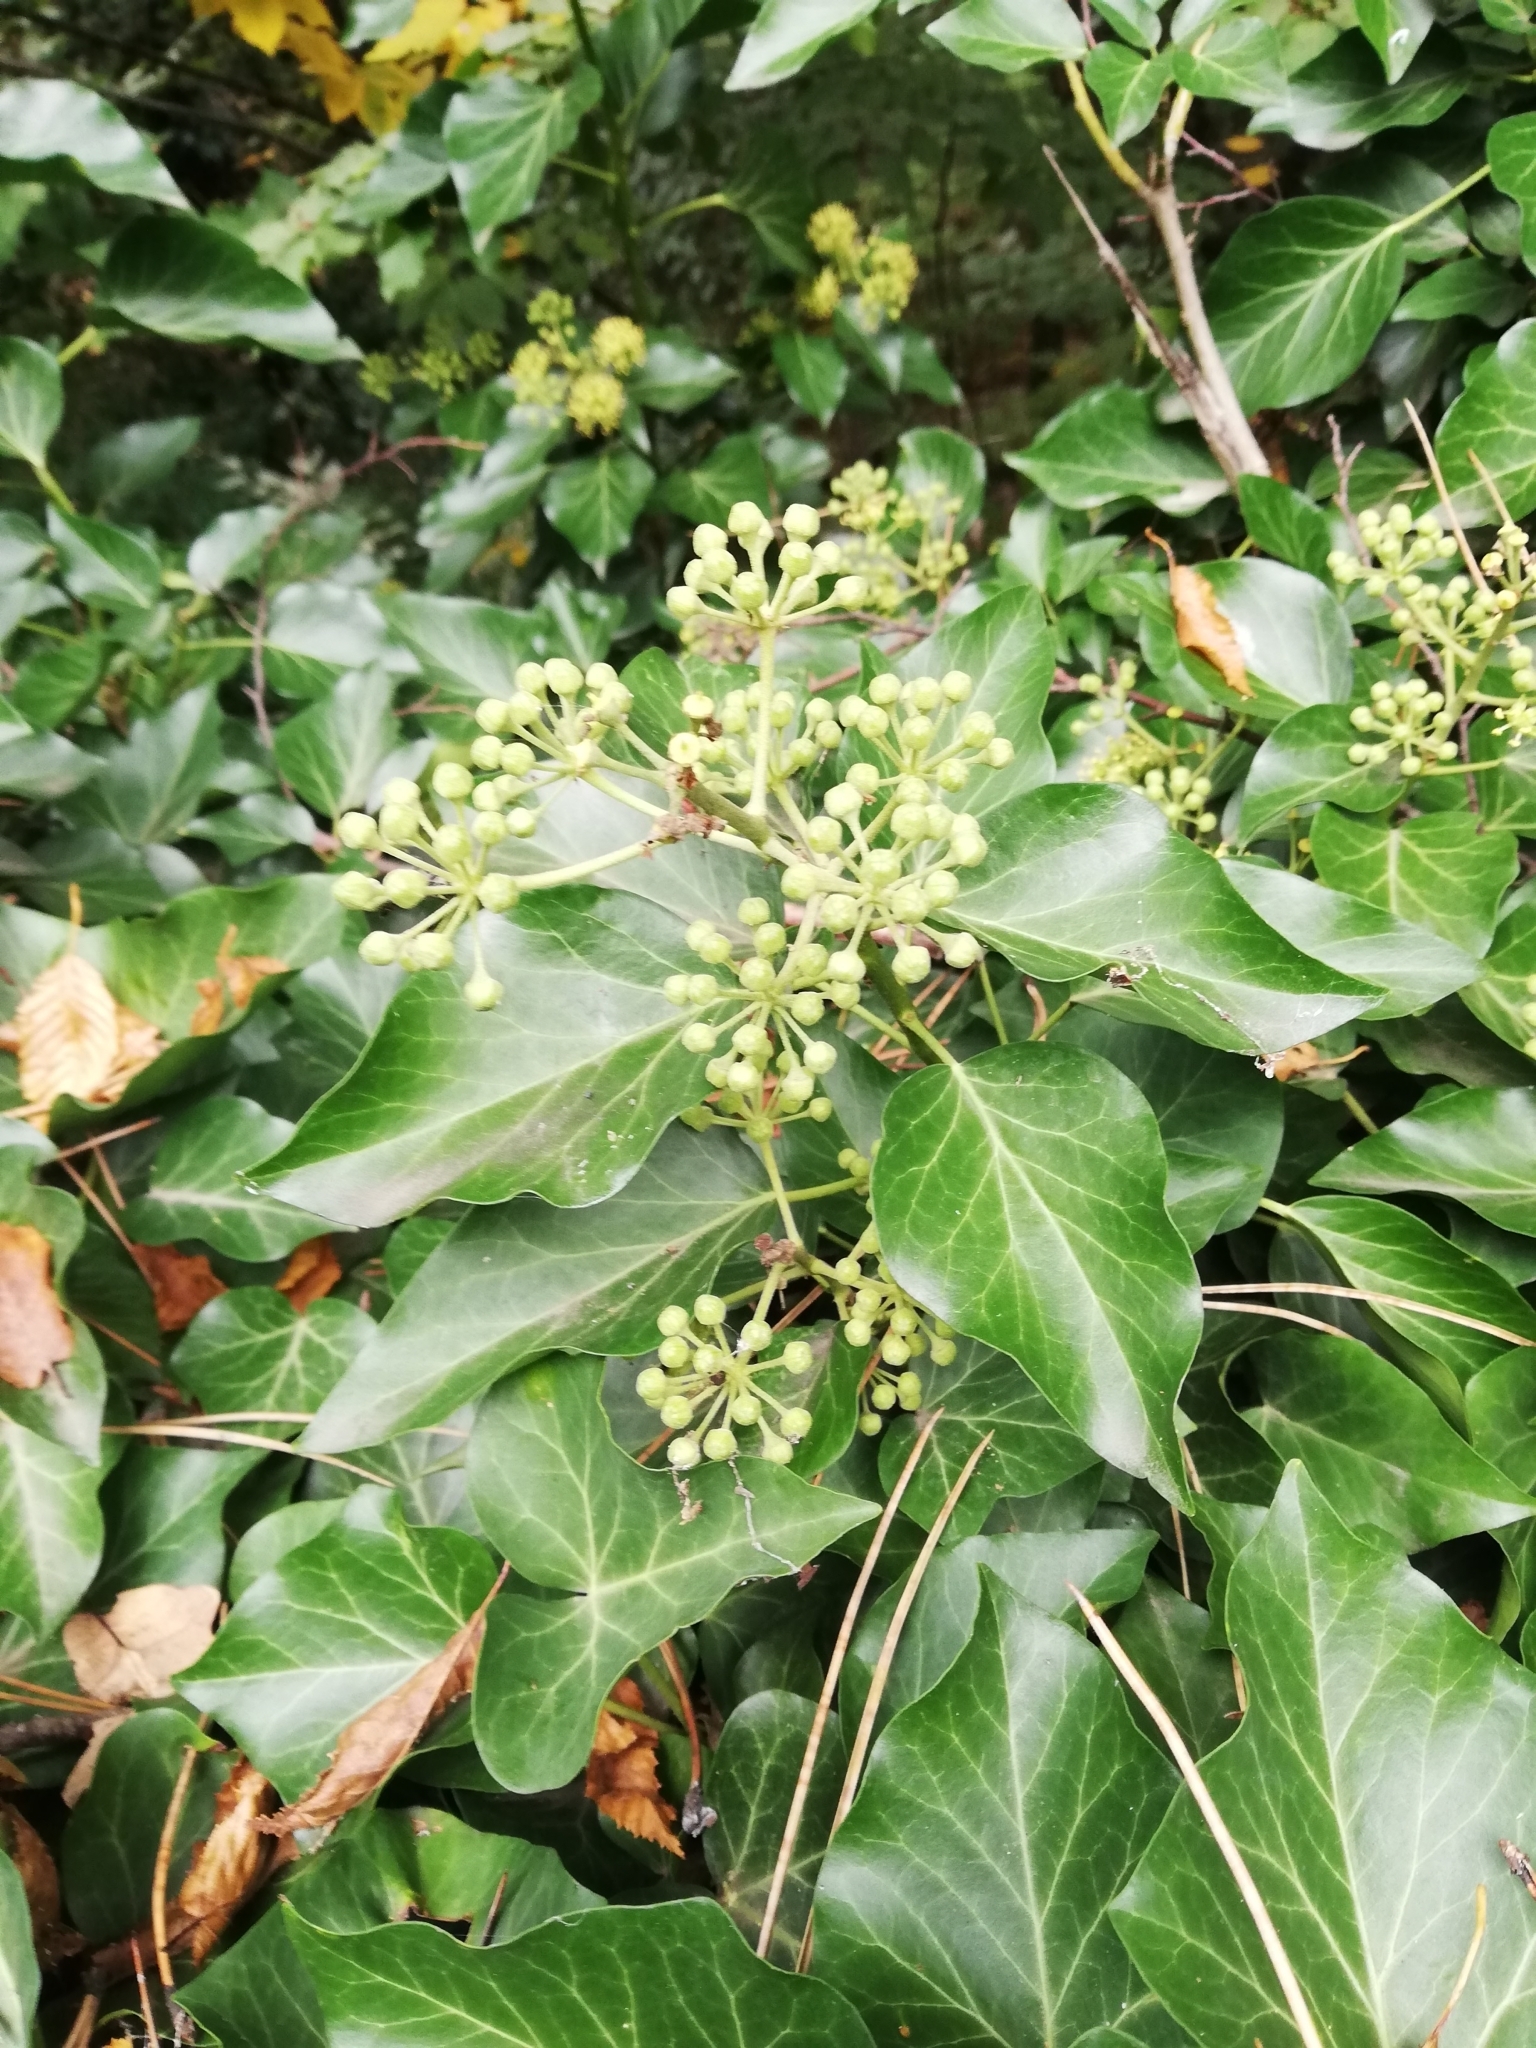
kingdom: Plantae
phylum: Tracheophyta
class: Magnoliopsida
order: Apiales
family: Araliaceae
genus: Hedera
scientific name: Hedera helix
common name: Ivy
